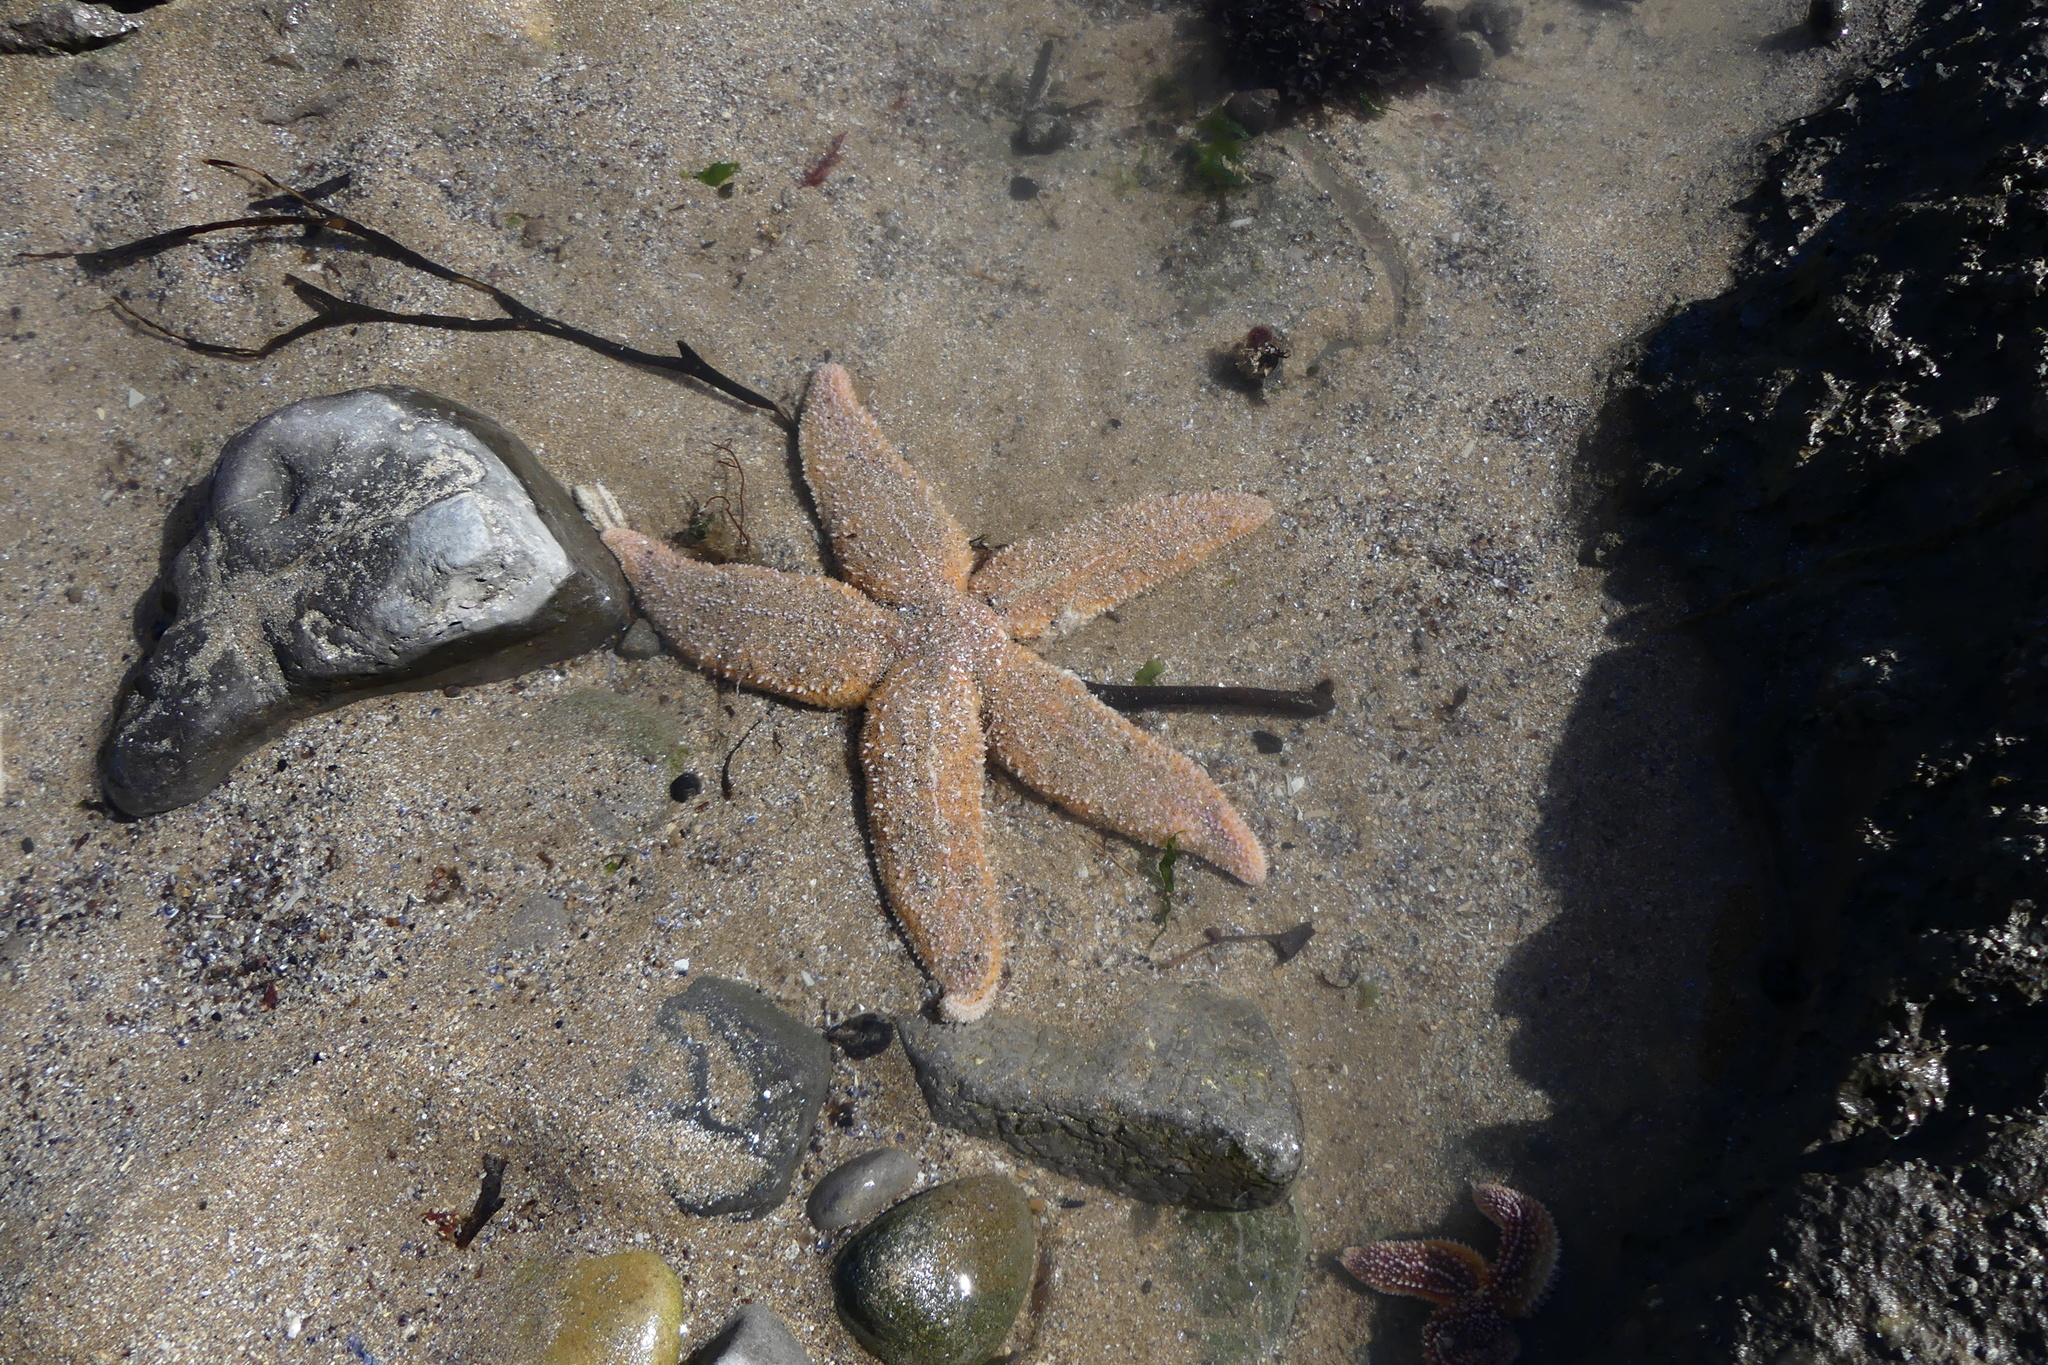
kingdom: Animalia
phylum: Echinodermata
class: Asteroidea
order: Forcipulatida
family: Asteriidae
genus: Asterias
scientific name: Asterias rubens
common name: Common starfish
